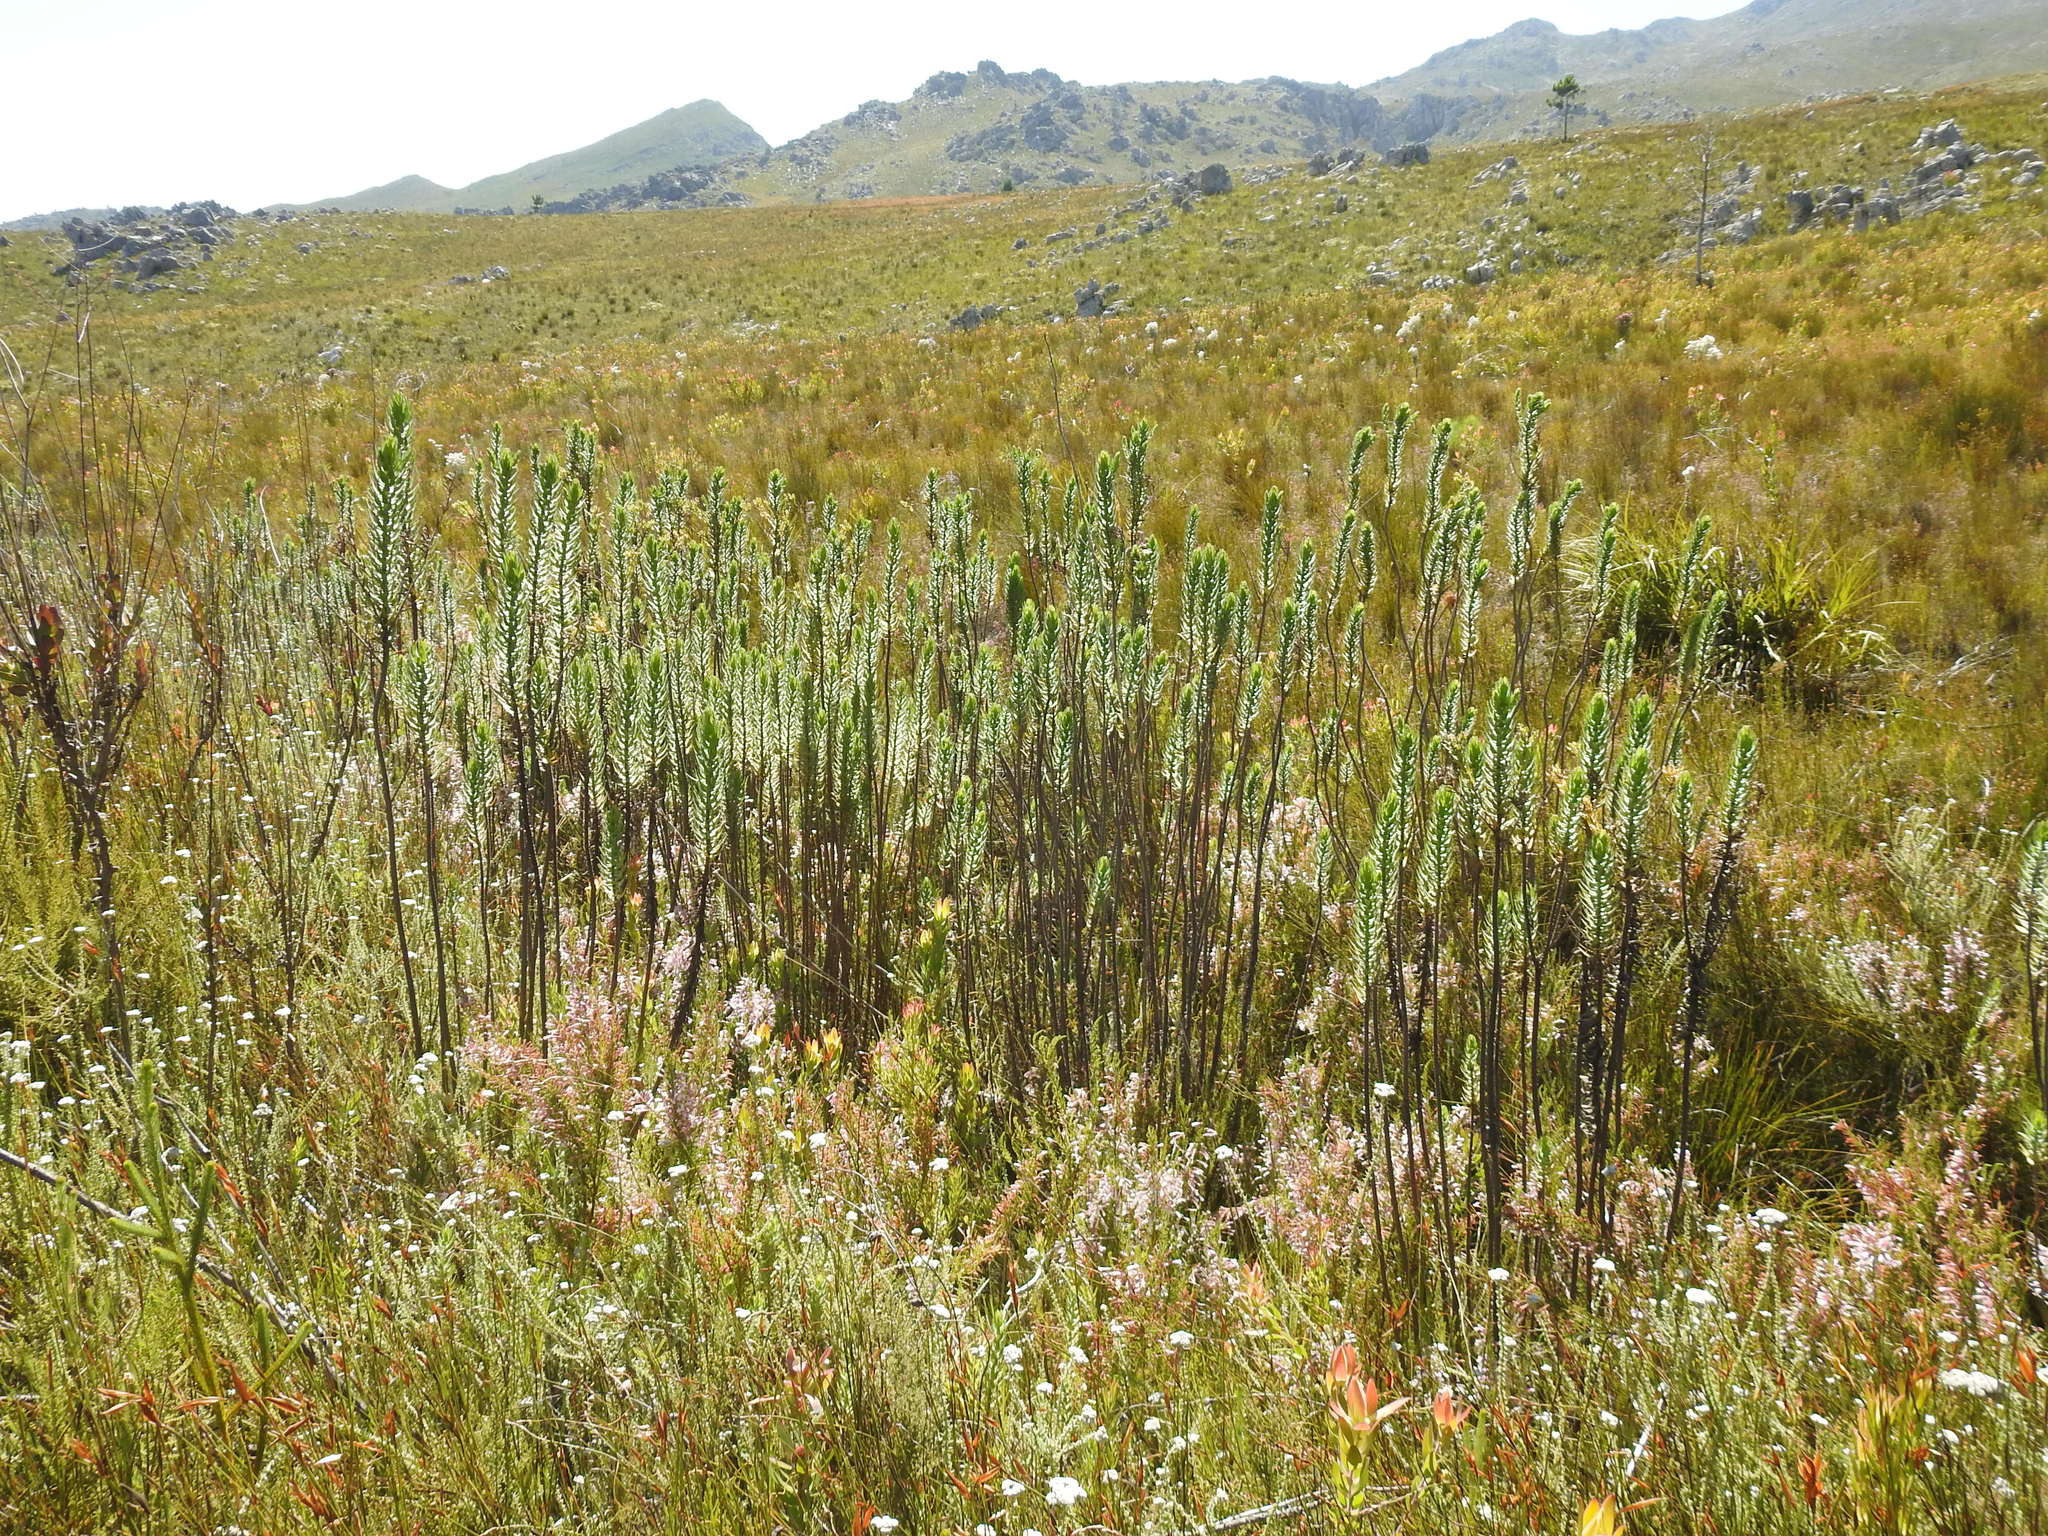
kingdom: Plantae
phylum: Tracheophyta
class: Magnoliopsida
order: Asterales
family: Asteraceae
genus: Osmitopsis
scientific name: Osmitopsis asteriscoides
